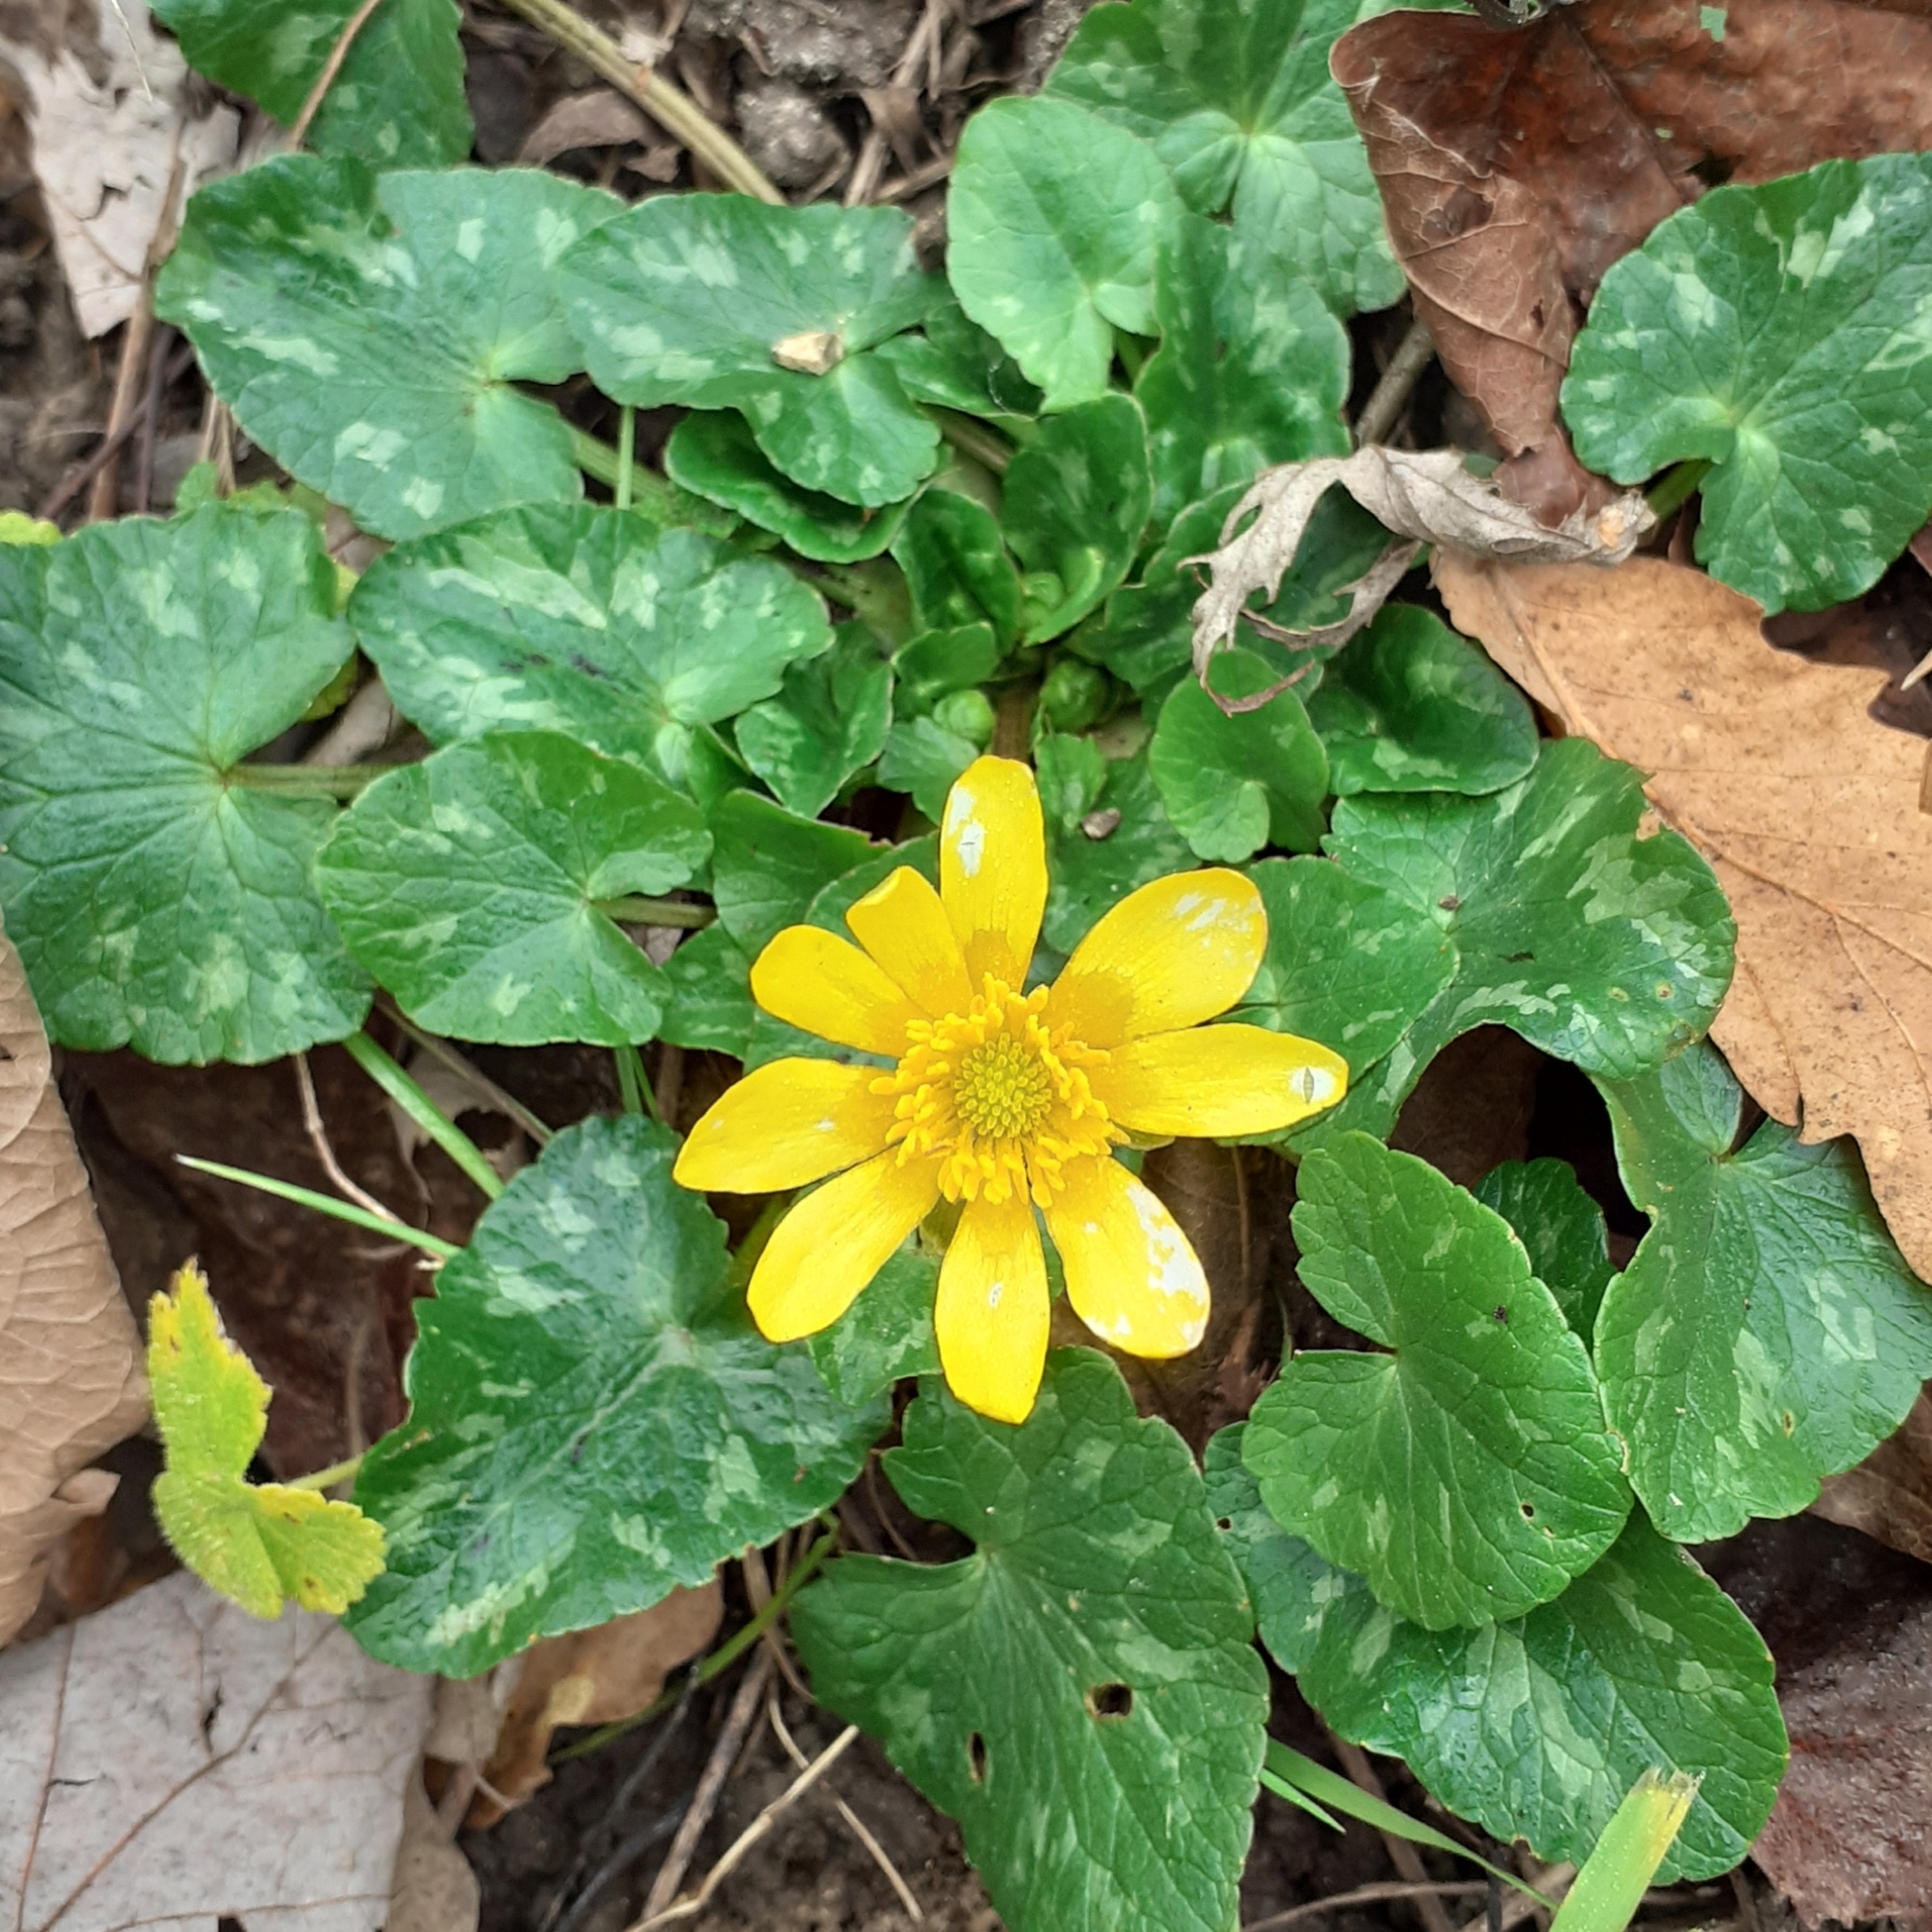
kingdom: Plantae
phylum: Tracheophyta
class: Magnoliopsida
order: Ranunculales
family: Ranunculaceae
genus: Ficaria
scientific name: Ficaria verna
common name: Lesser celandine
